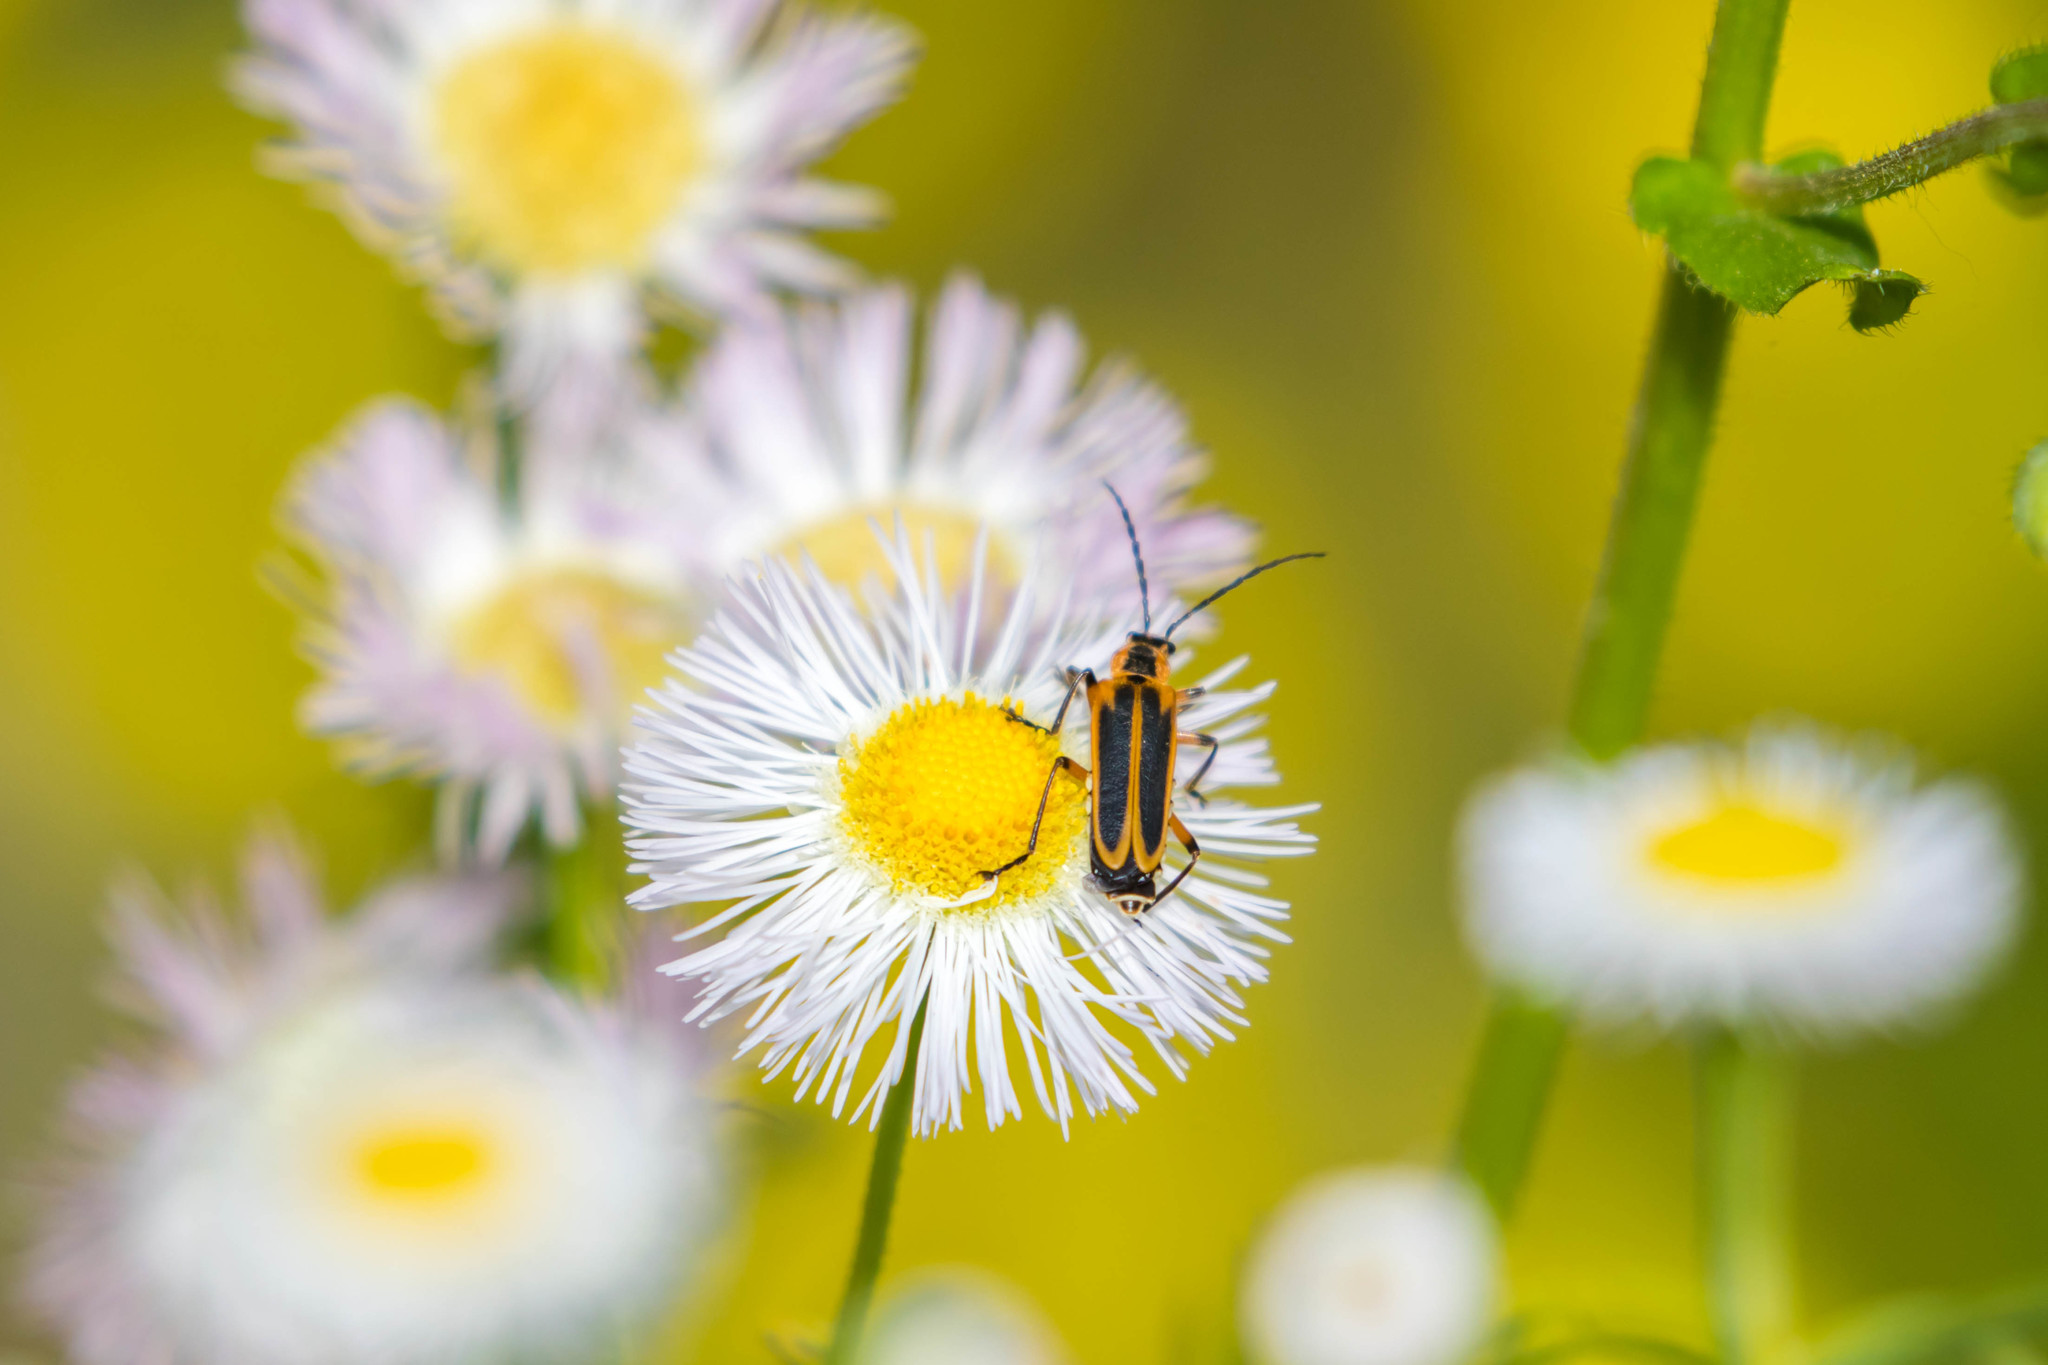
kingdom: Animalia
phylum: Arthropoda
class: Insecta
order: Coleoptera
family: Cantharidae
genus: Chauliognathus
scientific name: Chauliognathus marginatus
